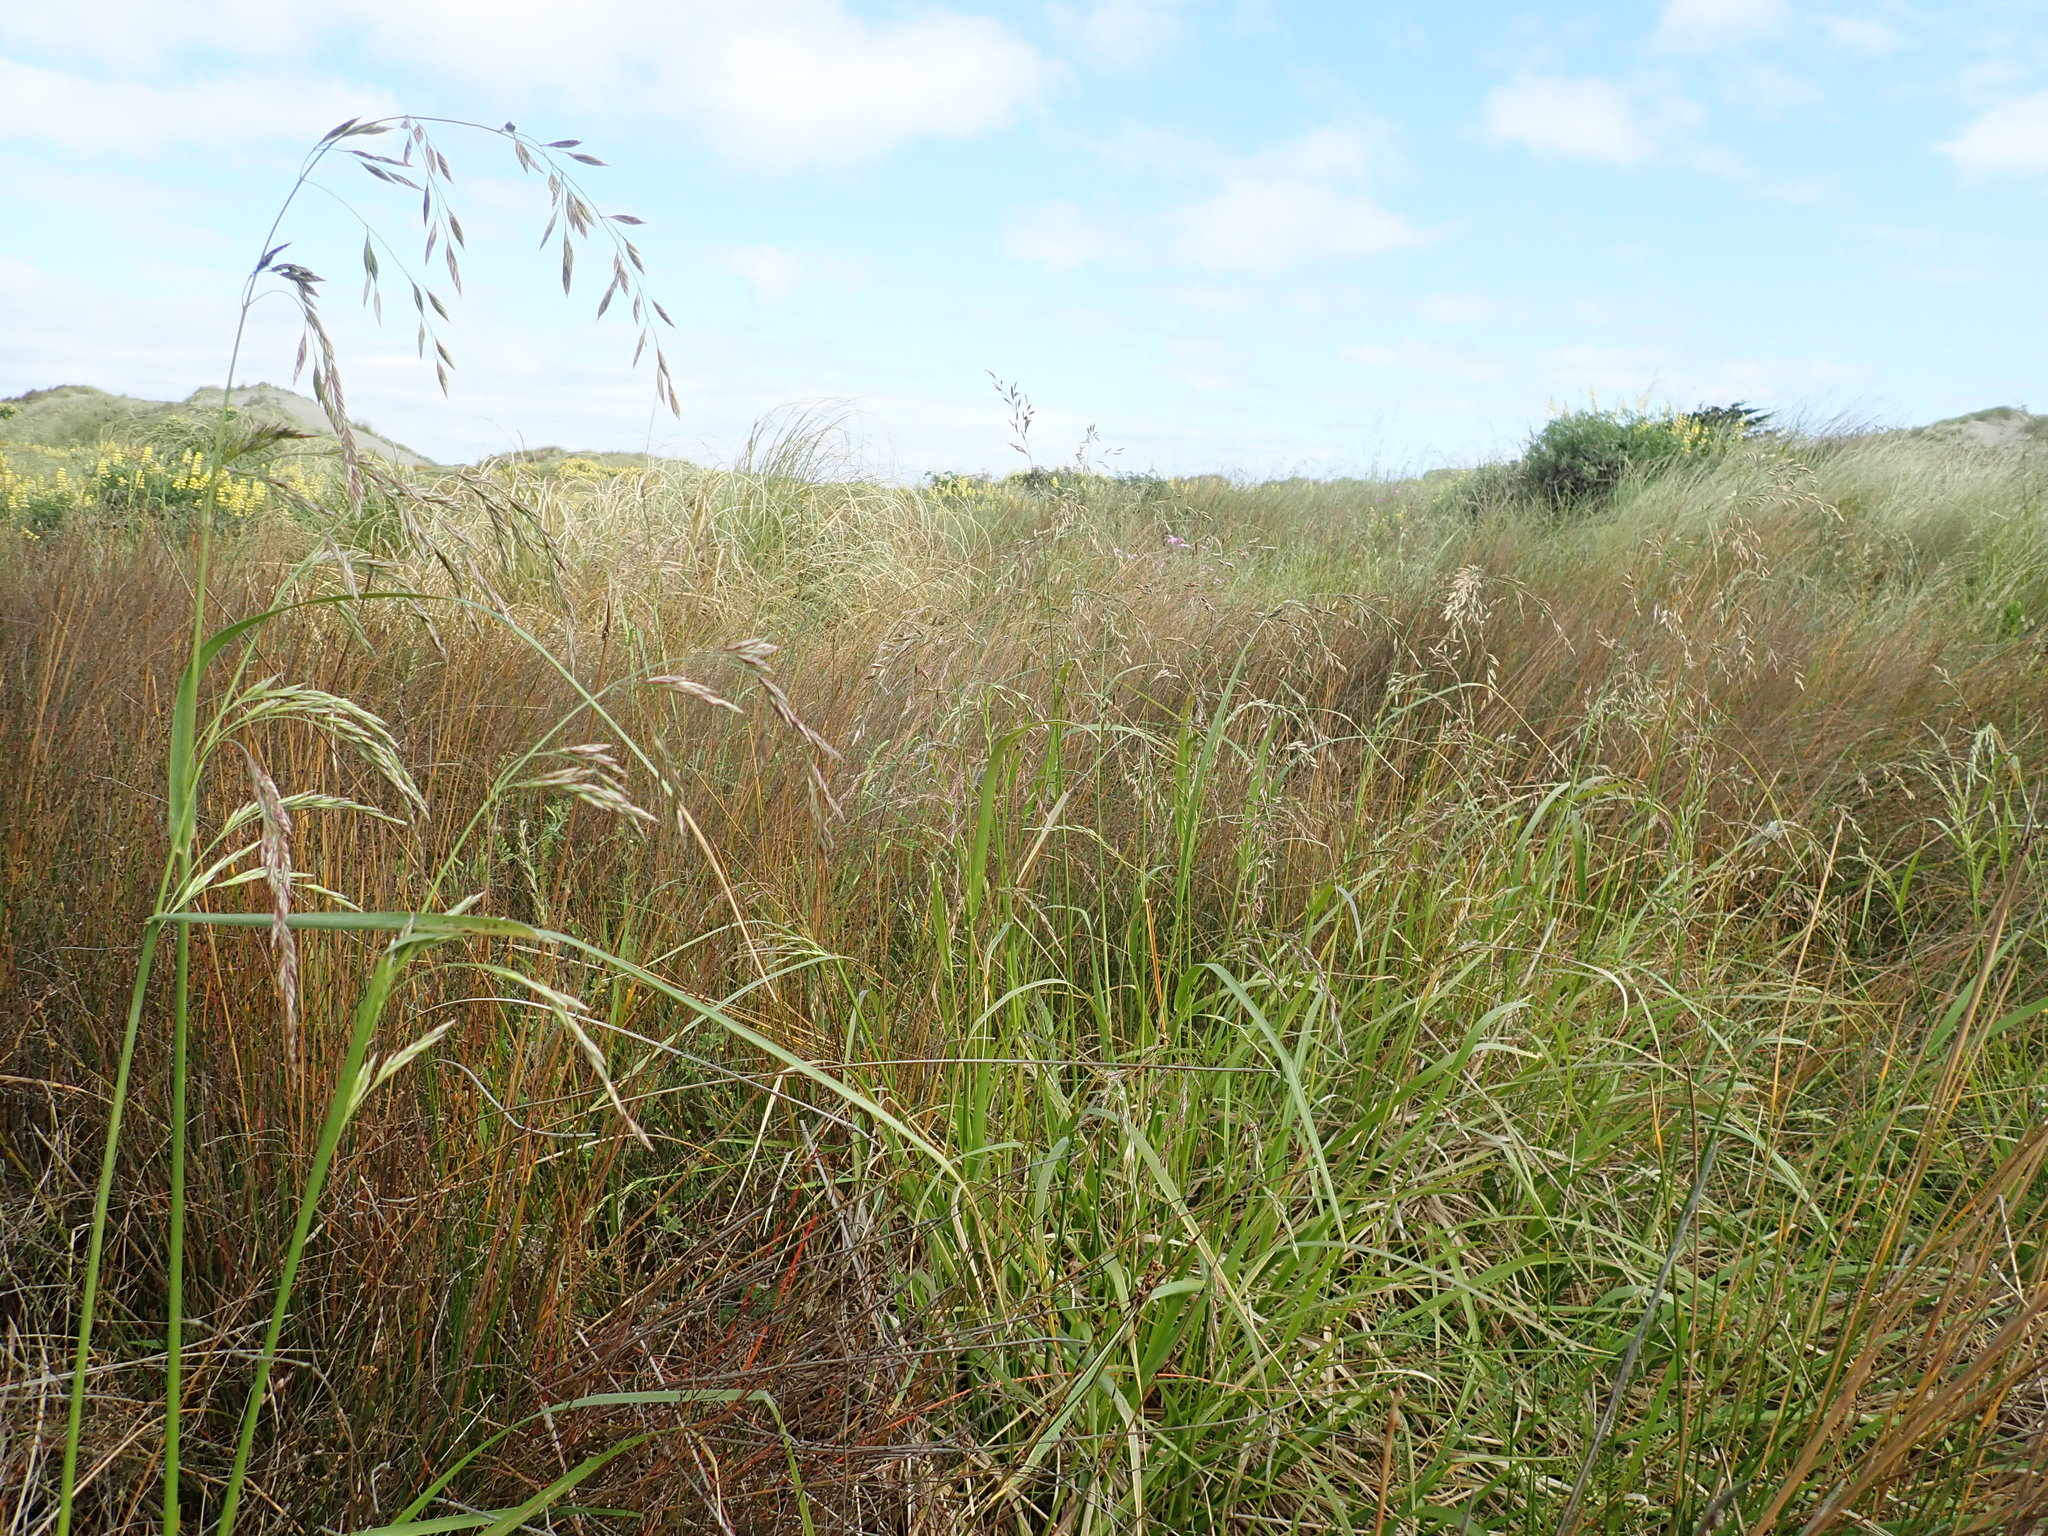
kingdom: Plantae
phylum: Tracheophyta
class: Liliopsida
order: Poales
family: Poaceae
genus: Lolium
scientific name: Lolium arundinaceum
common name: Reed fescue
